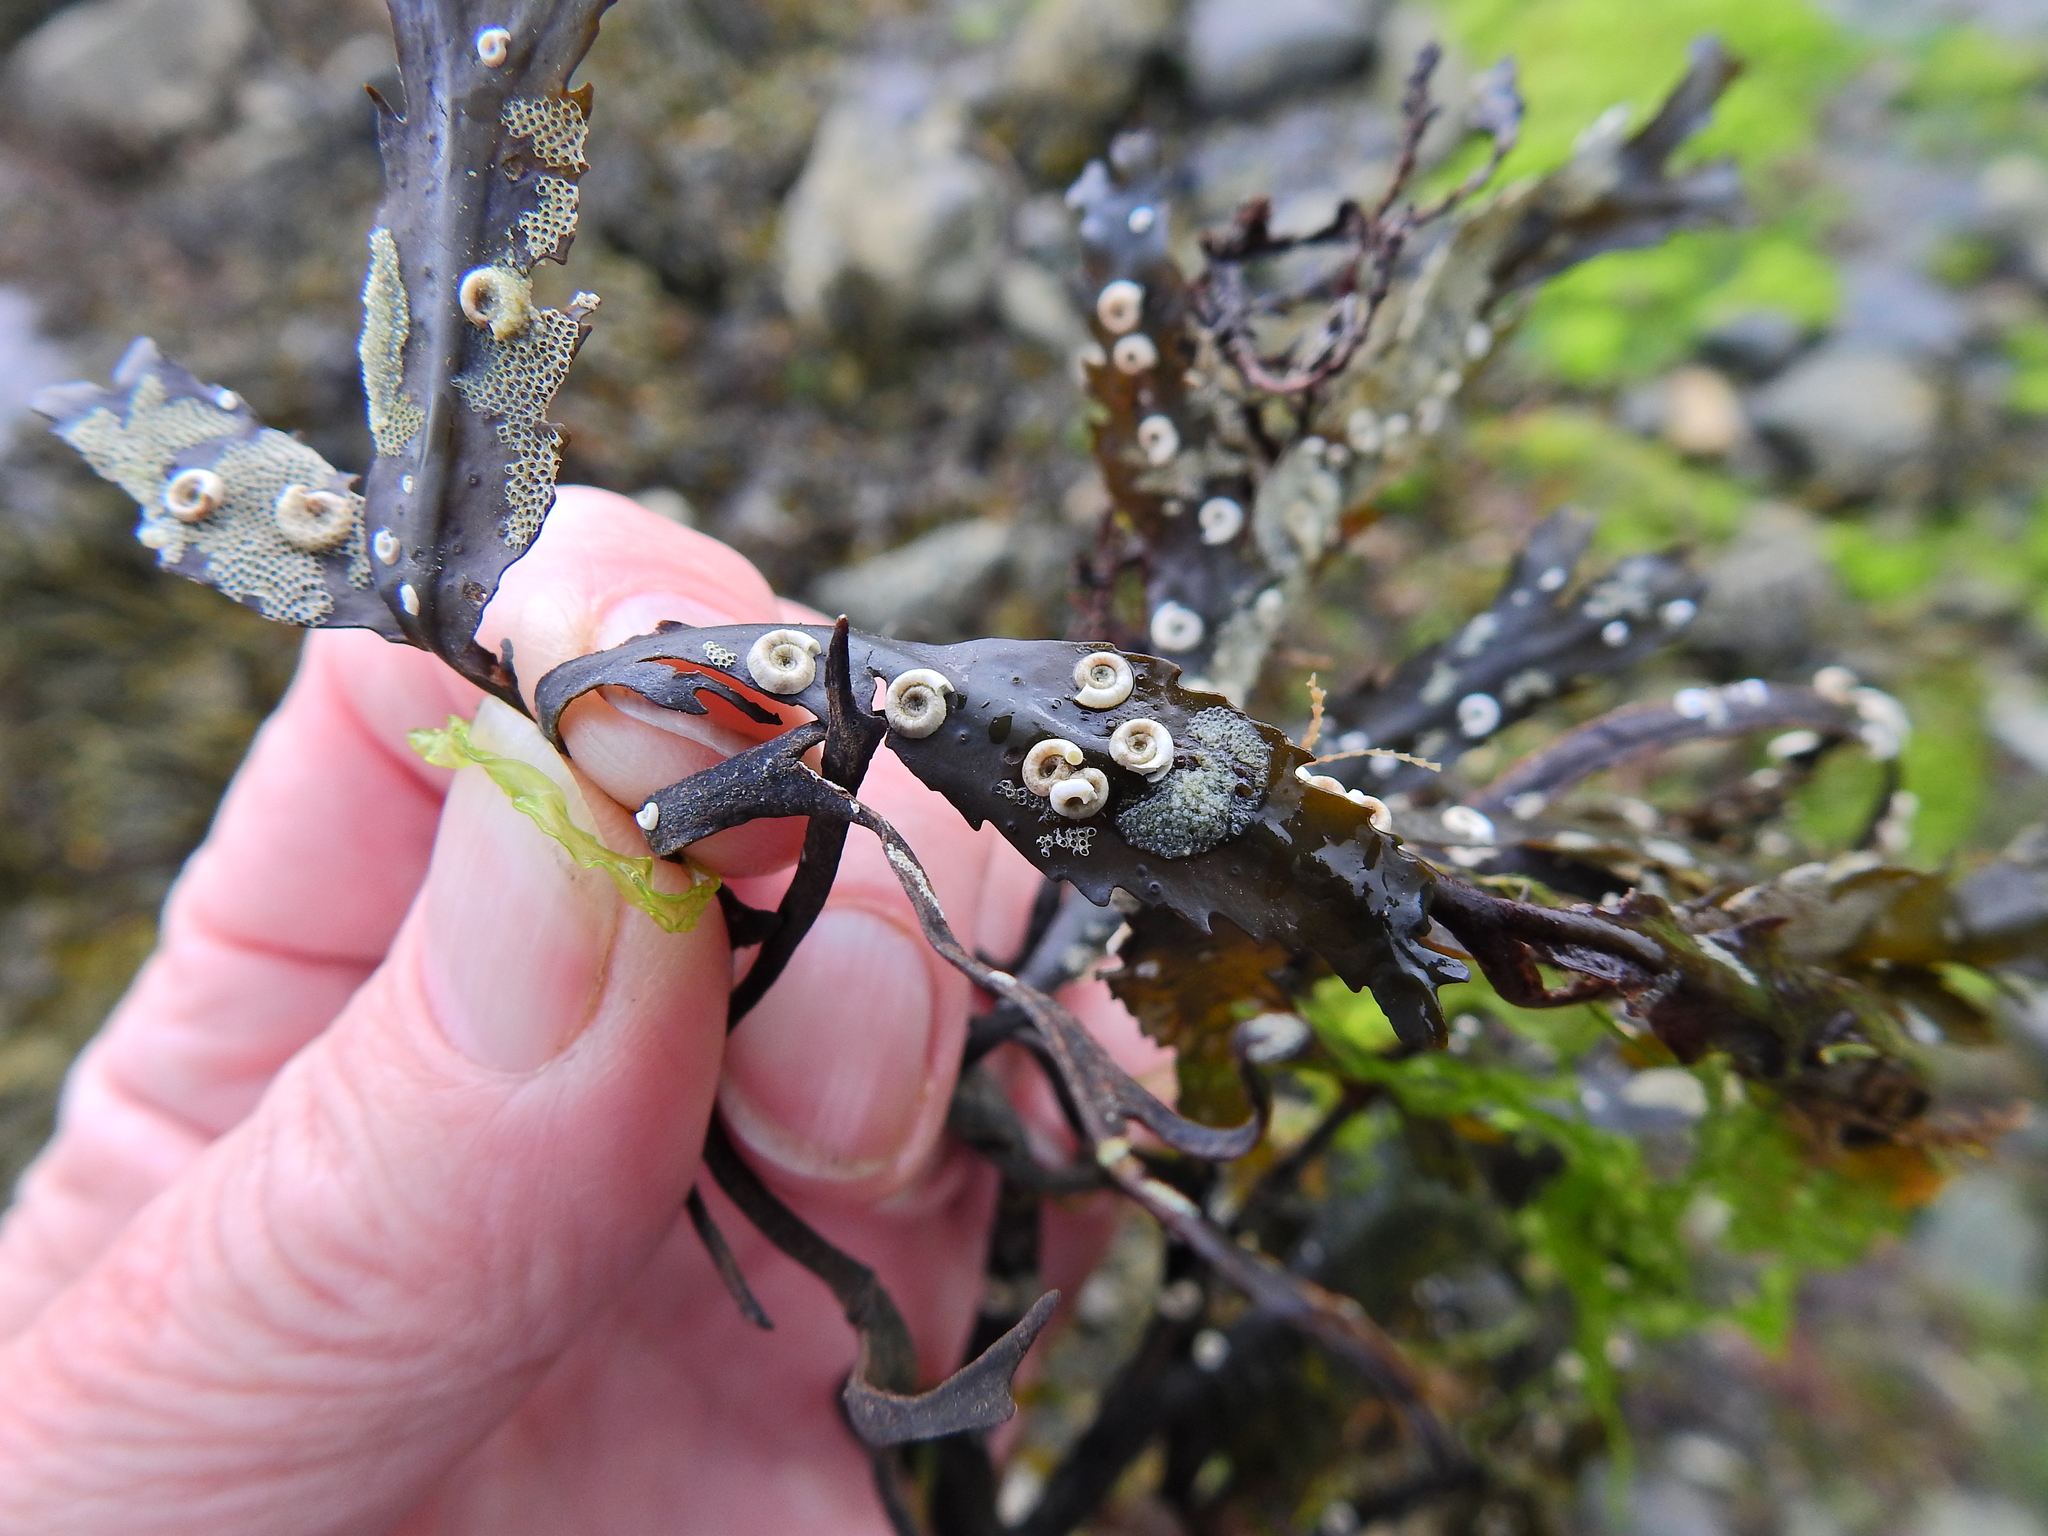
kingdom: Animalia
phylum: Annelida
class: Polychaeta
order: Sabellida
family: Serpulidae
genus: Spirorbis
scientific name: Spirorbis spirorbis
